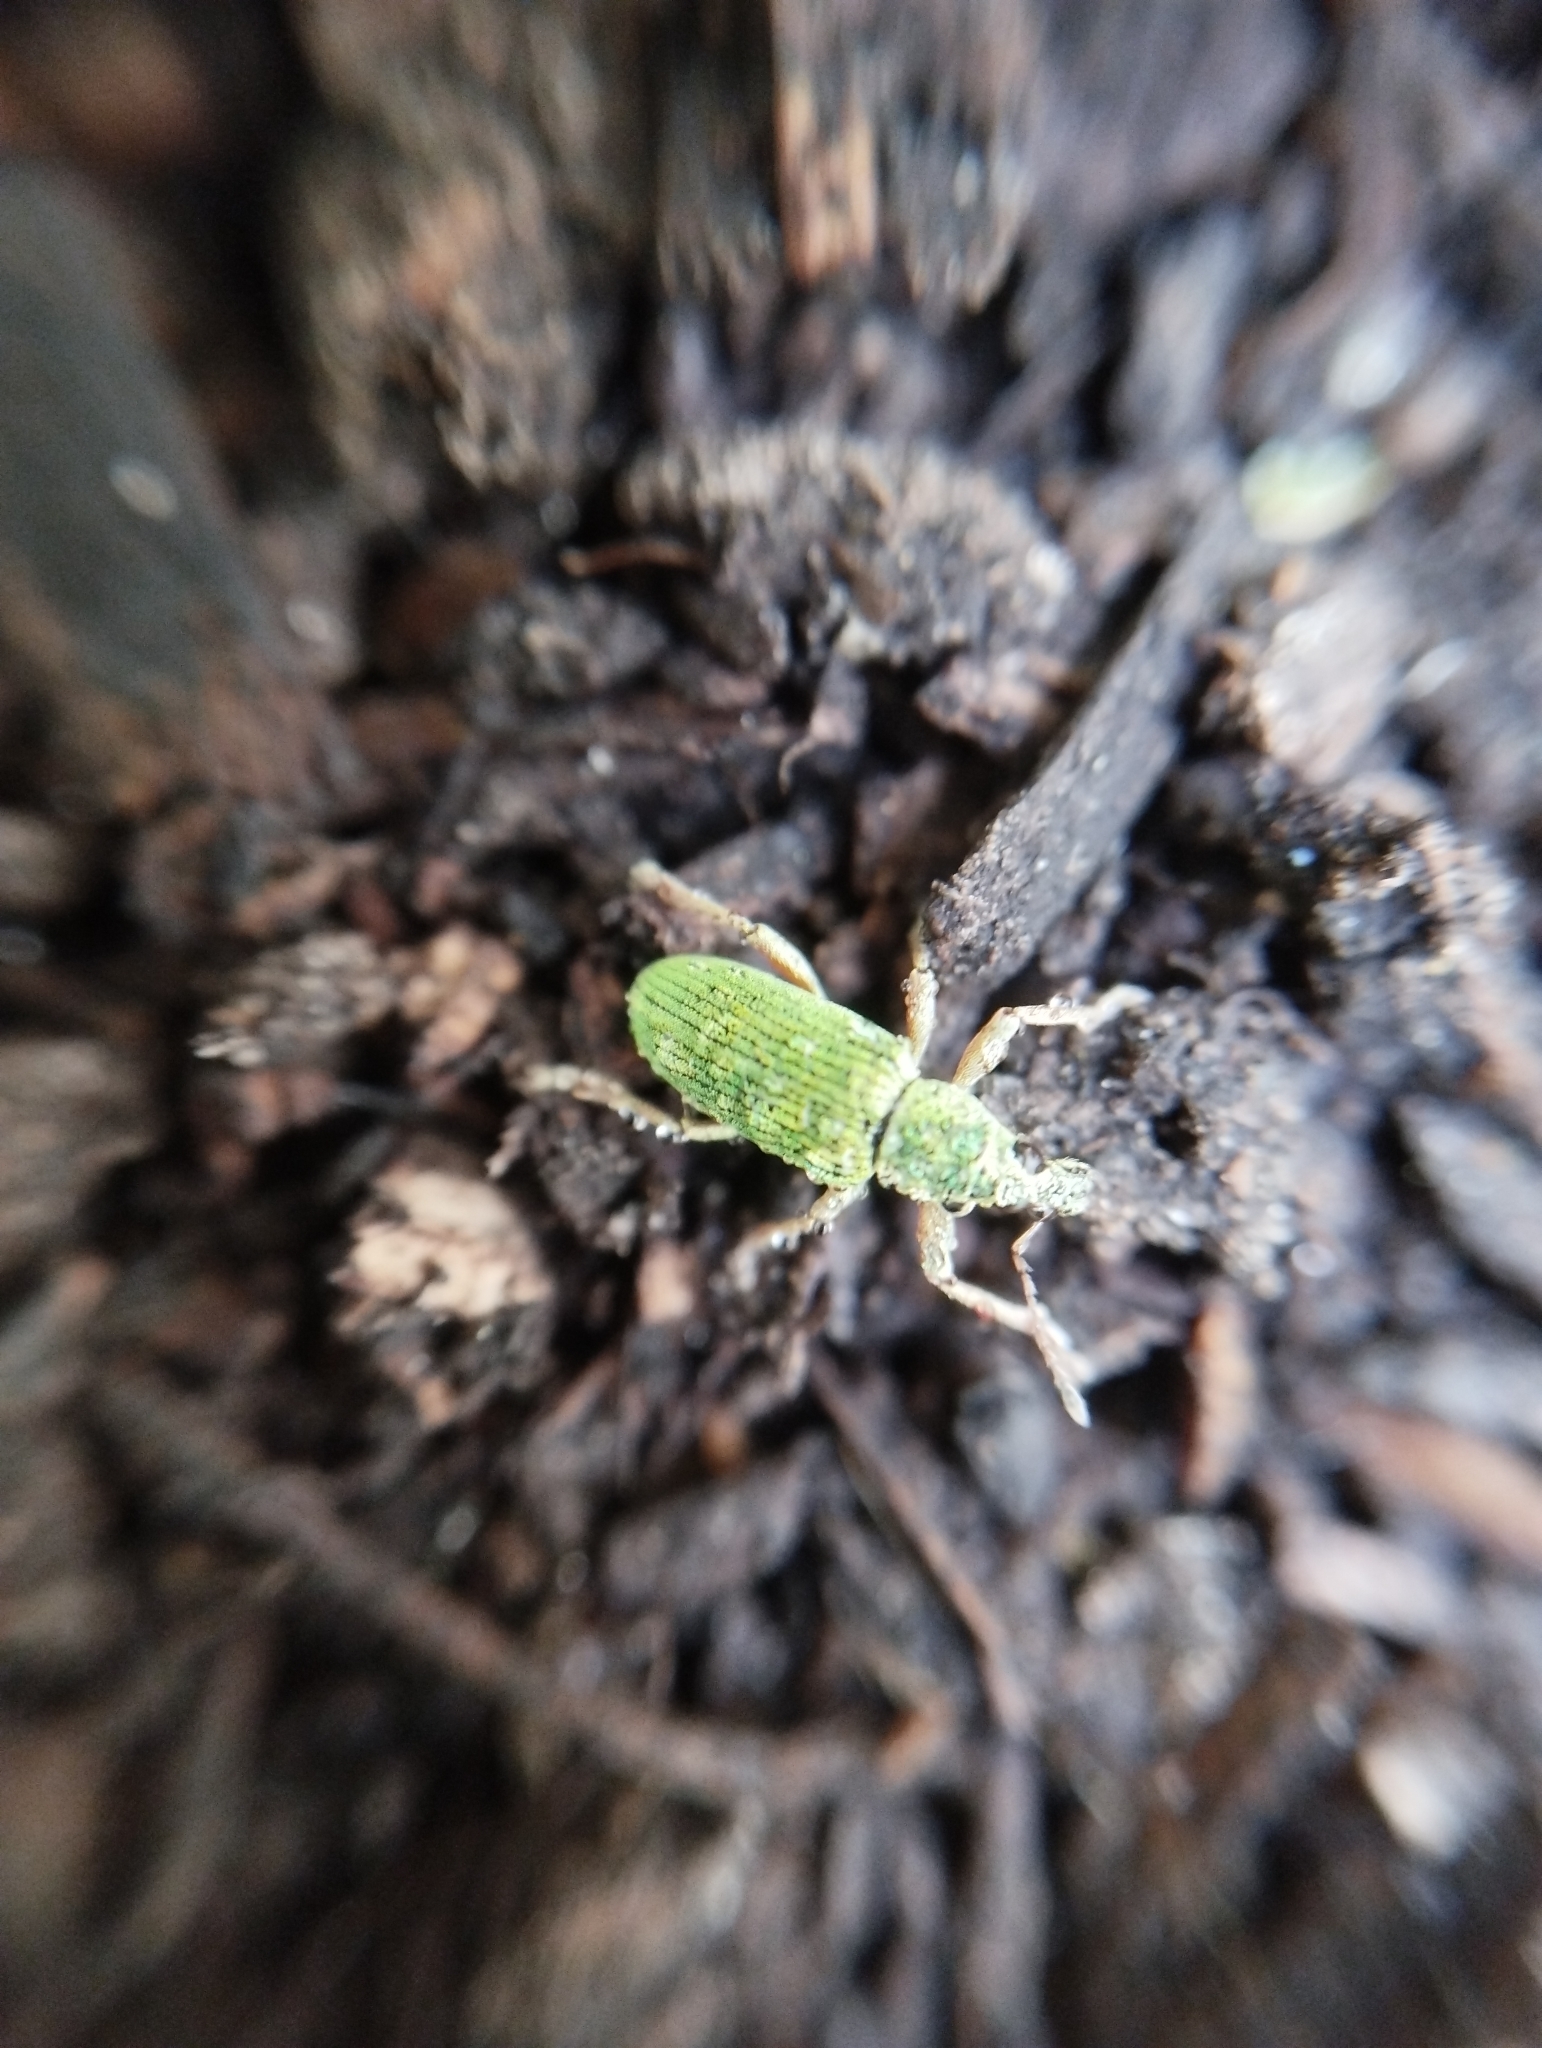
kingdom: Animalia
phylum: Arthropoda
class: Insecta
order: Coleoptera
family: Curculionidae
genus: Polydrusus
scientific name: Polydrusus formosus
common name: Weevil
